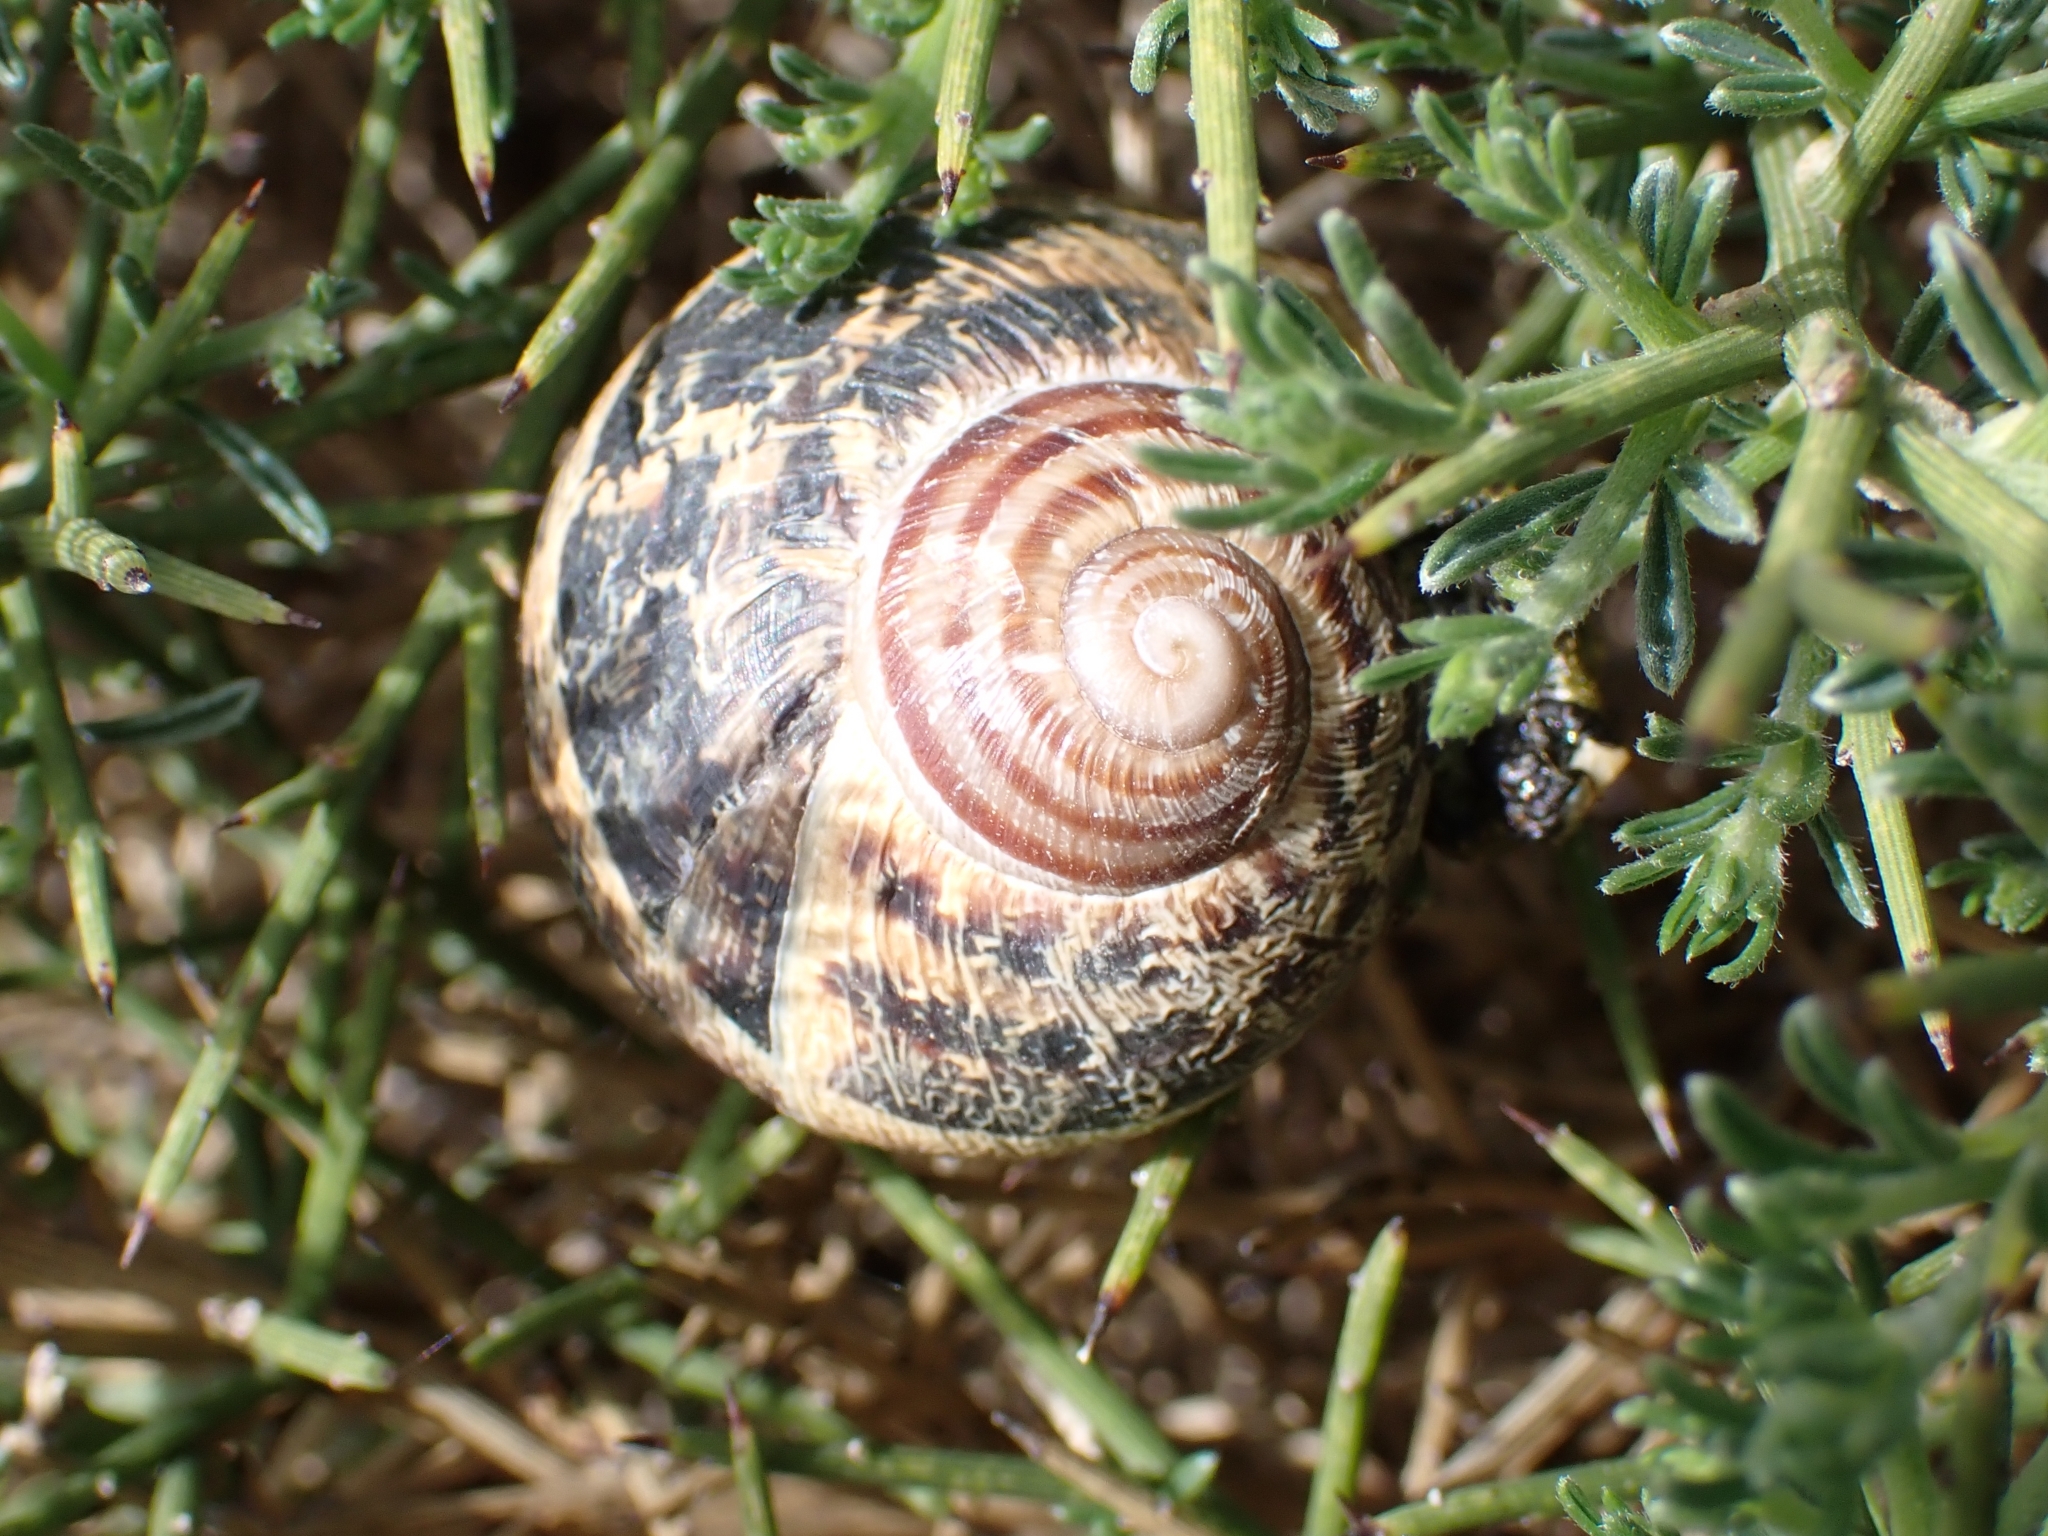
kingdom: Animalia
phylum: Mollusca
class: Gastropoda
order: Stylommatophora
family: Helicidae
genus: Cornu
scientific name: Cornu aspersum
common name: Brown garden snail
